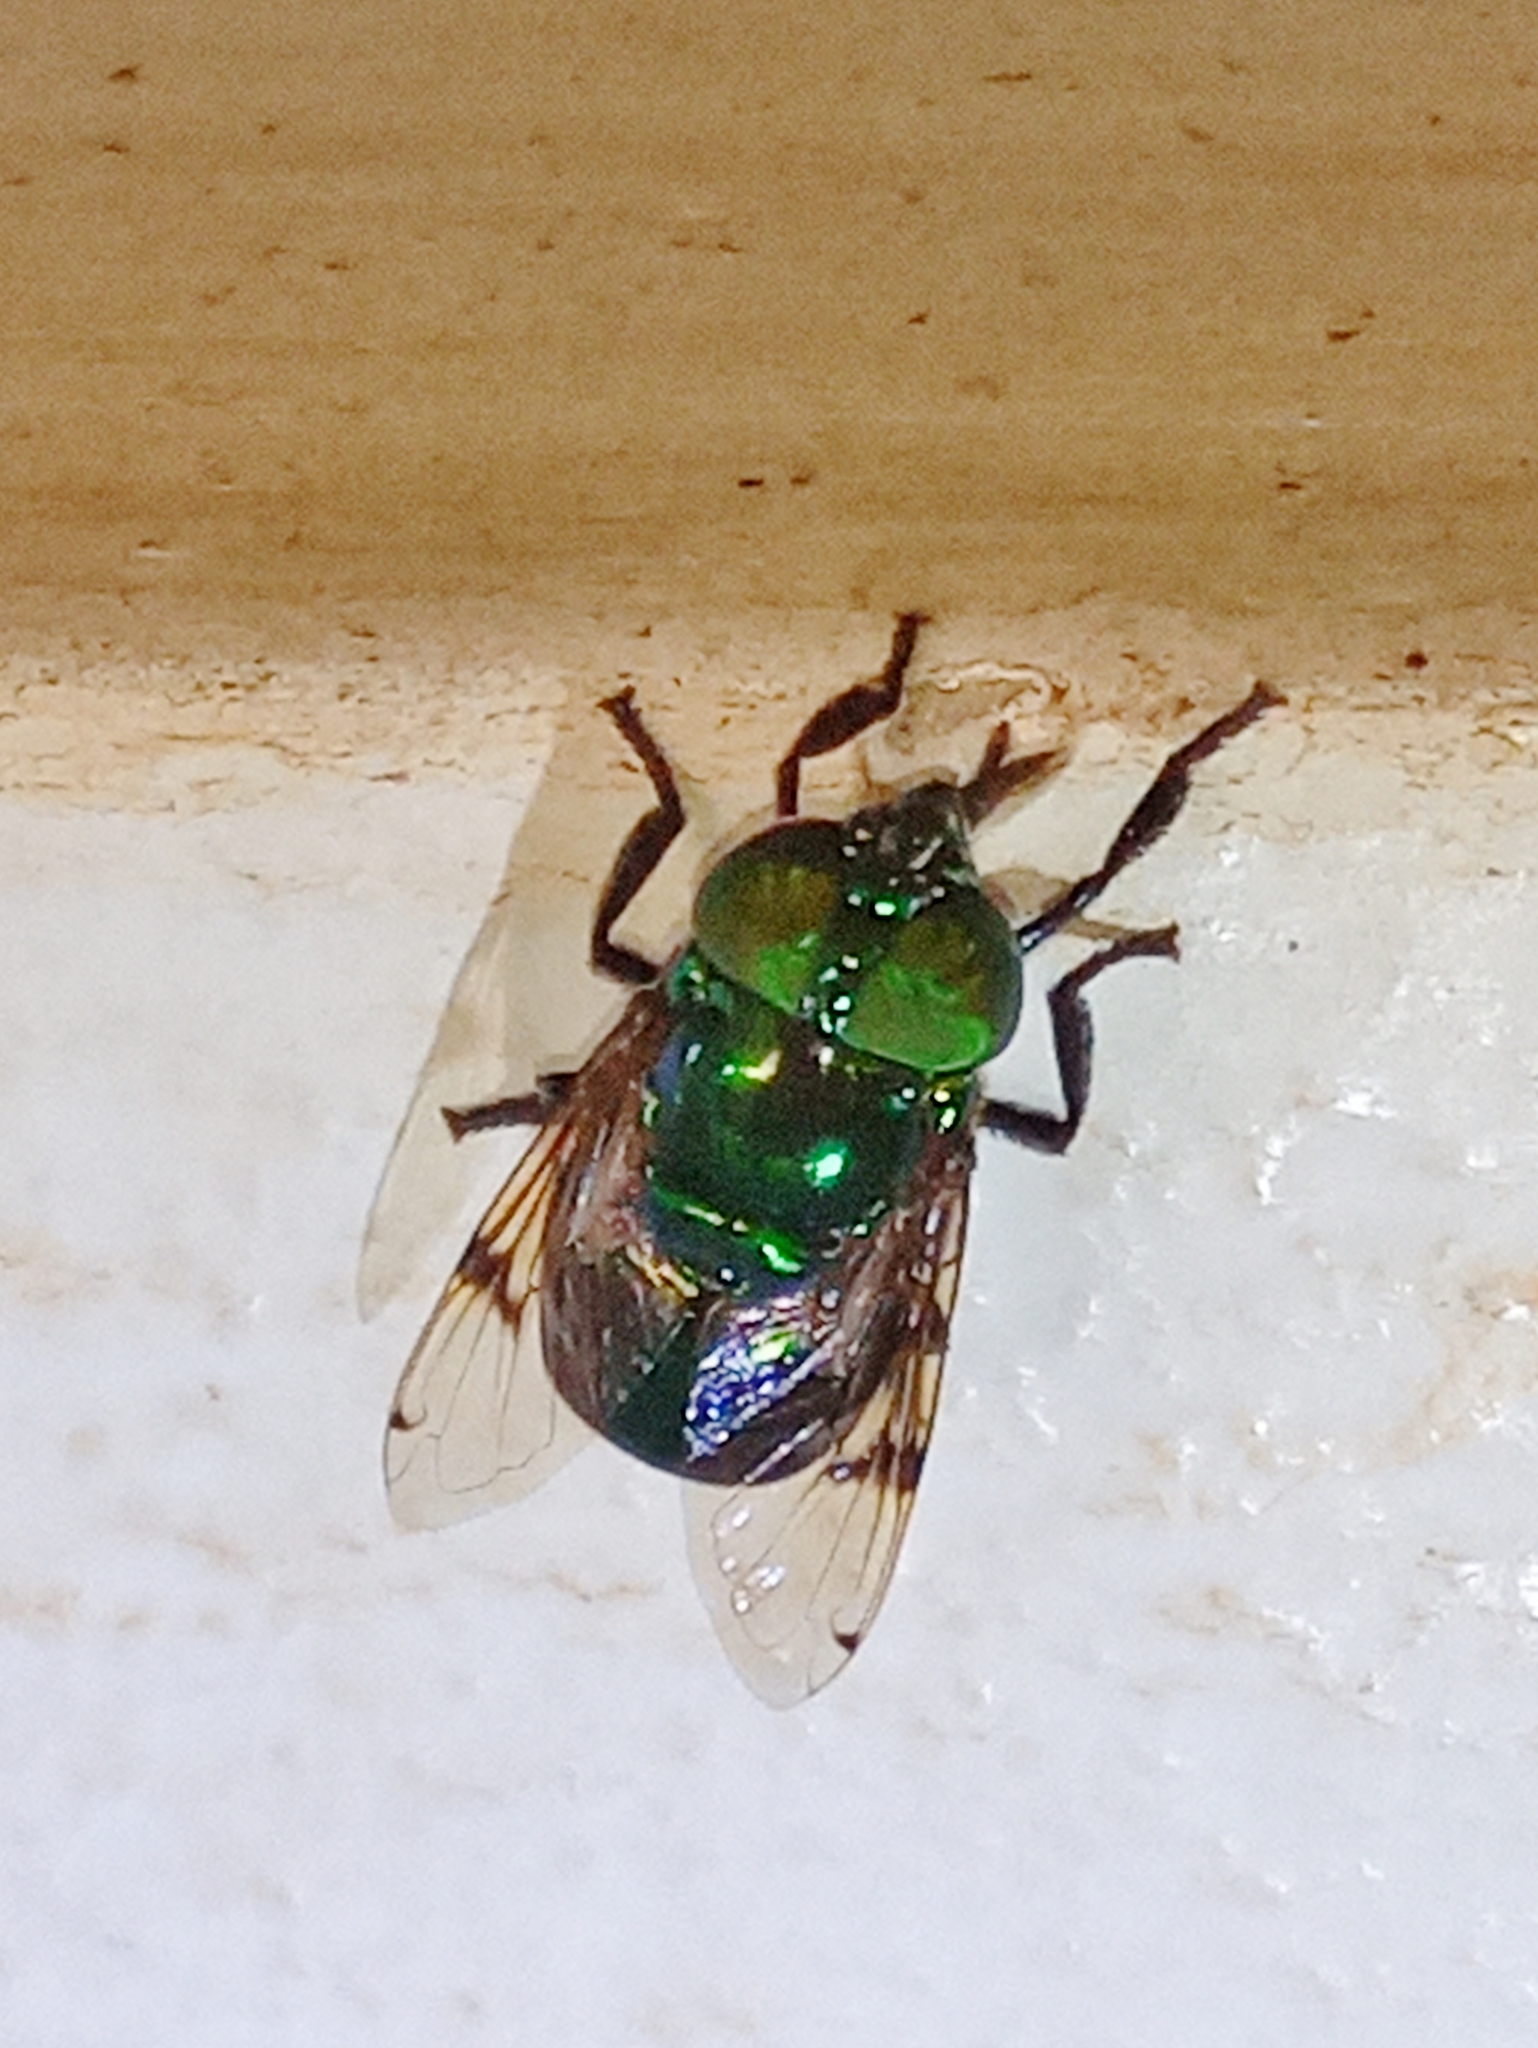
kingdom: Animalia
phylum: Arthropoda
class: Insecta
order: Diptera
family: Syrphidae
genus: Ornidia
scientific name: Ornidia obesa
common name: Syrphid fly
